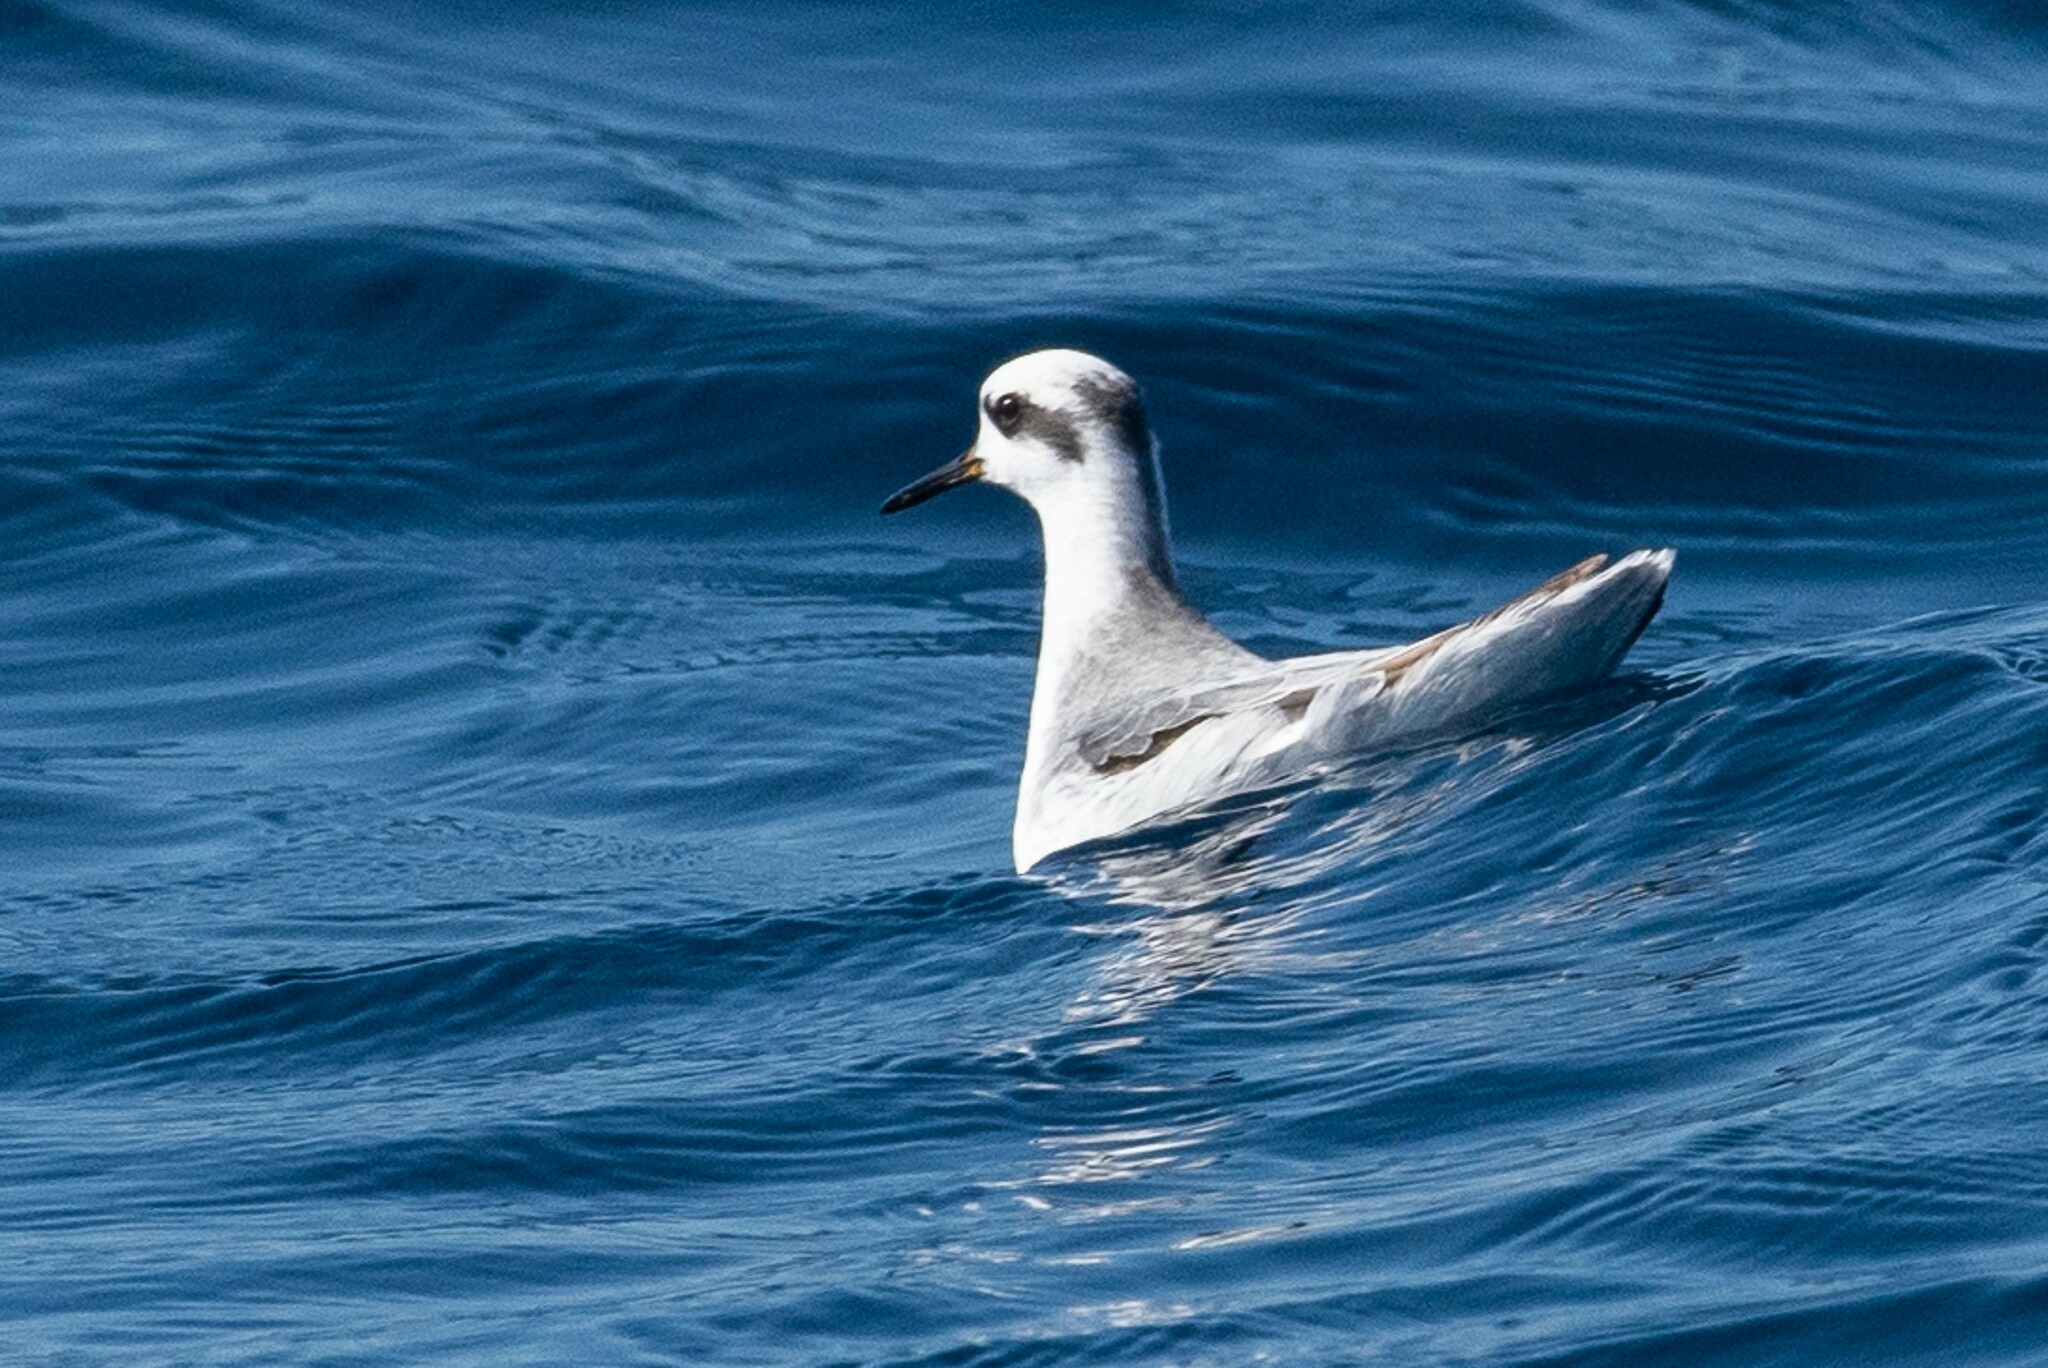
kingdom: Animalia
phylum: Chordata
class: Aves
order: Charadriiformes
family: Scolopacidae
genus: Phalaropus
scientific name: Phalaropus fulicarius
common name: Red phalarope
